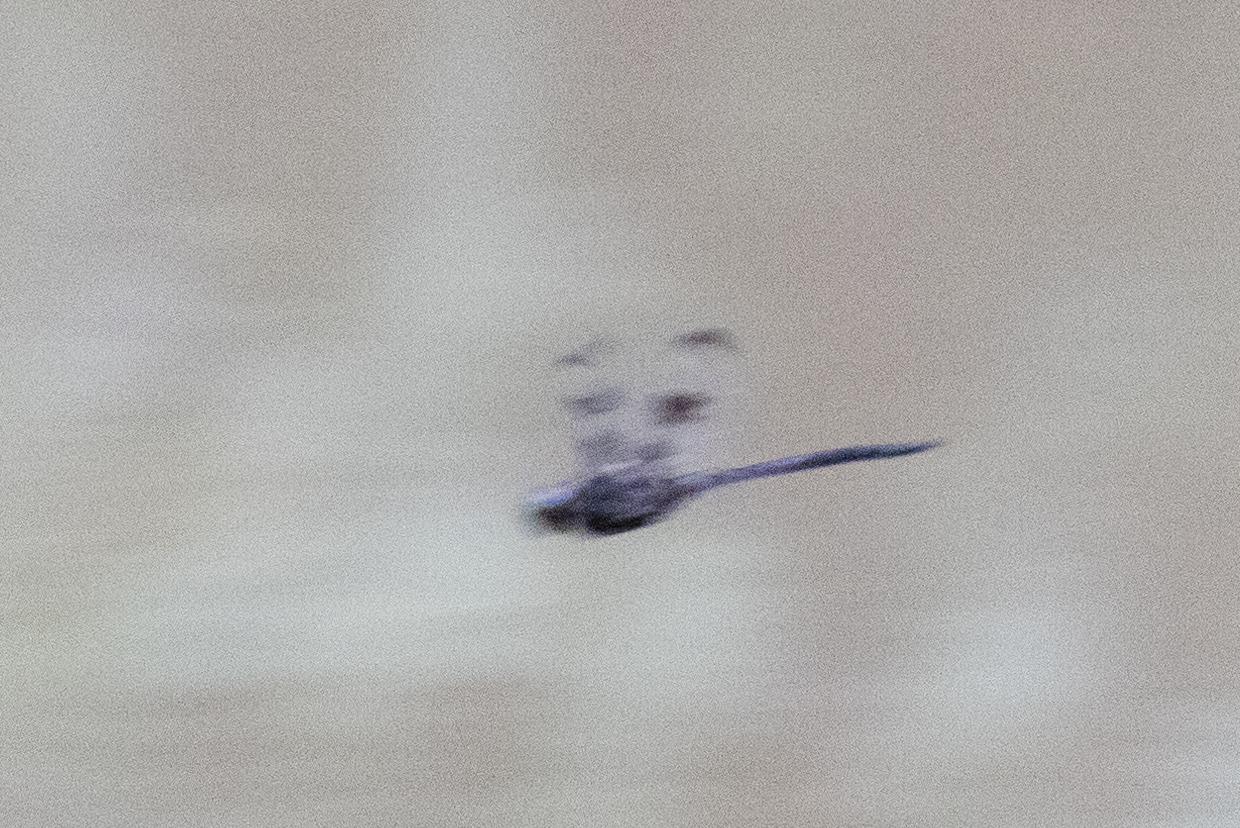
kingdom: Animalia
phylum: Arthropoda
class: Insecta
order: Odonata
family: Corduliidae
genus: Epitheca
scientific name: Epitheca princeps
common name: Prince baskettail
